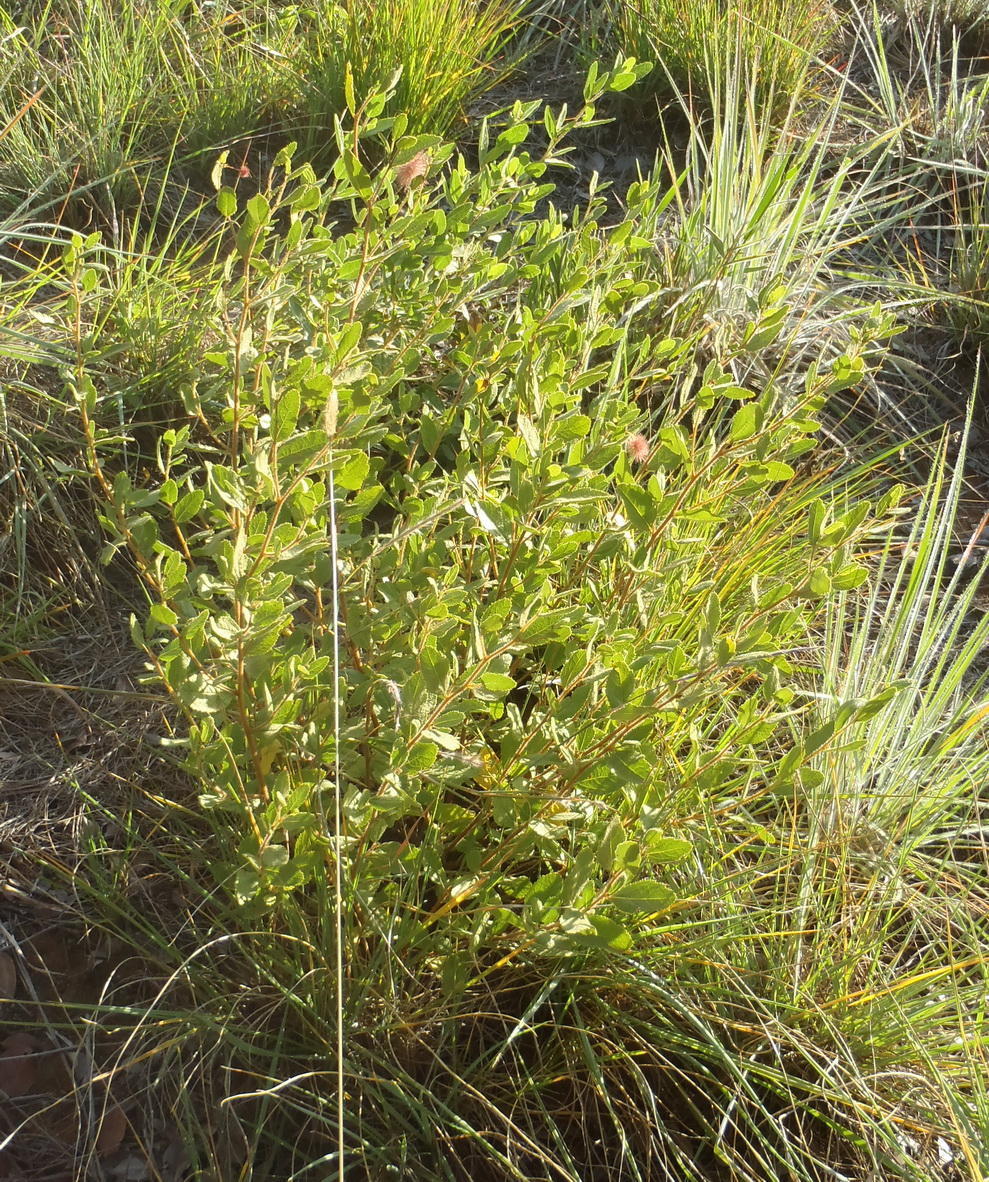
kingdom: Plantae
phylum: Tracheophyta
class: Magnoliopsida
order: Malvales
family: Malvaceae
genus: Triumfetta
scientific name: Triumfetta sonderi
